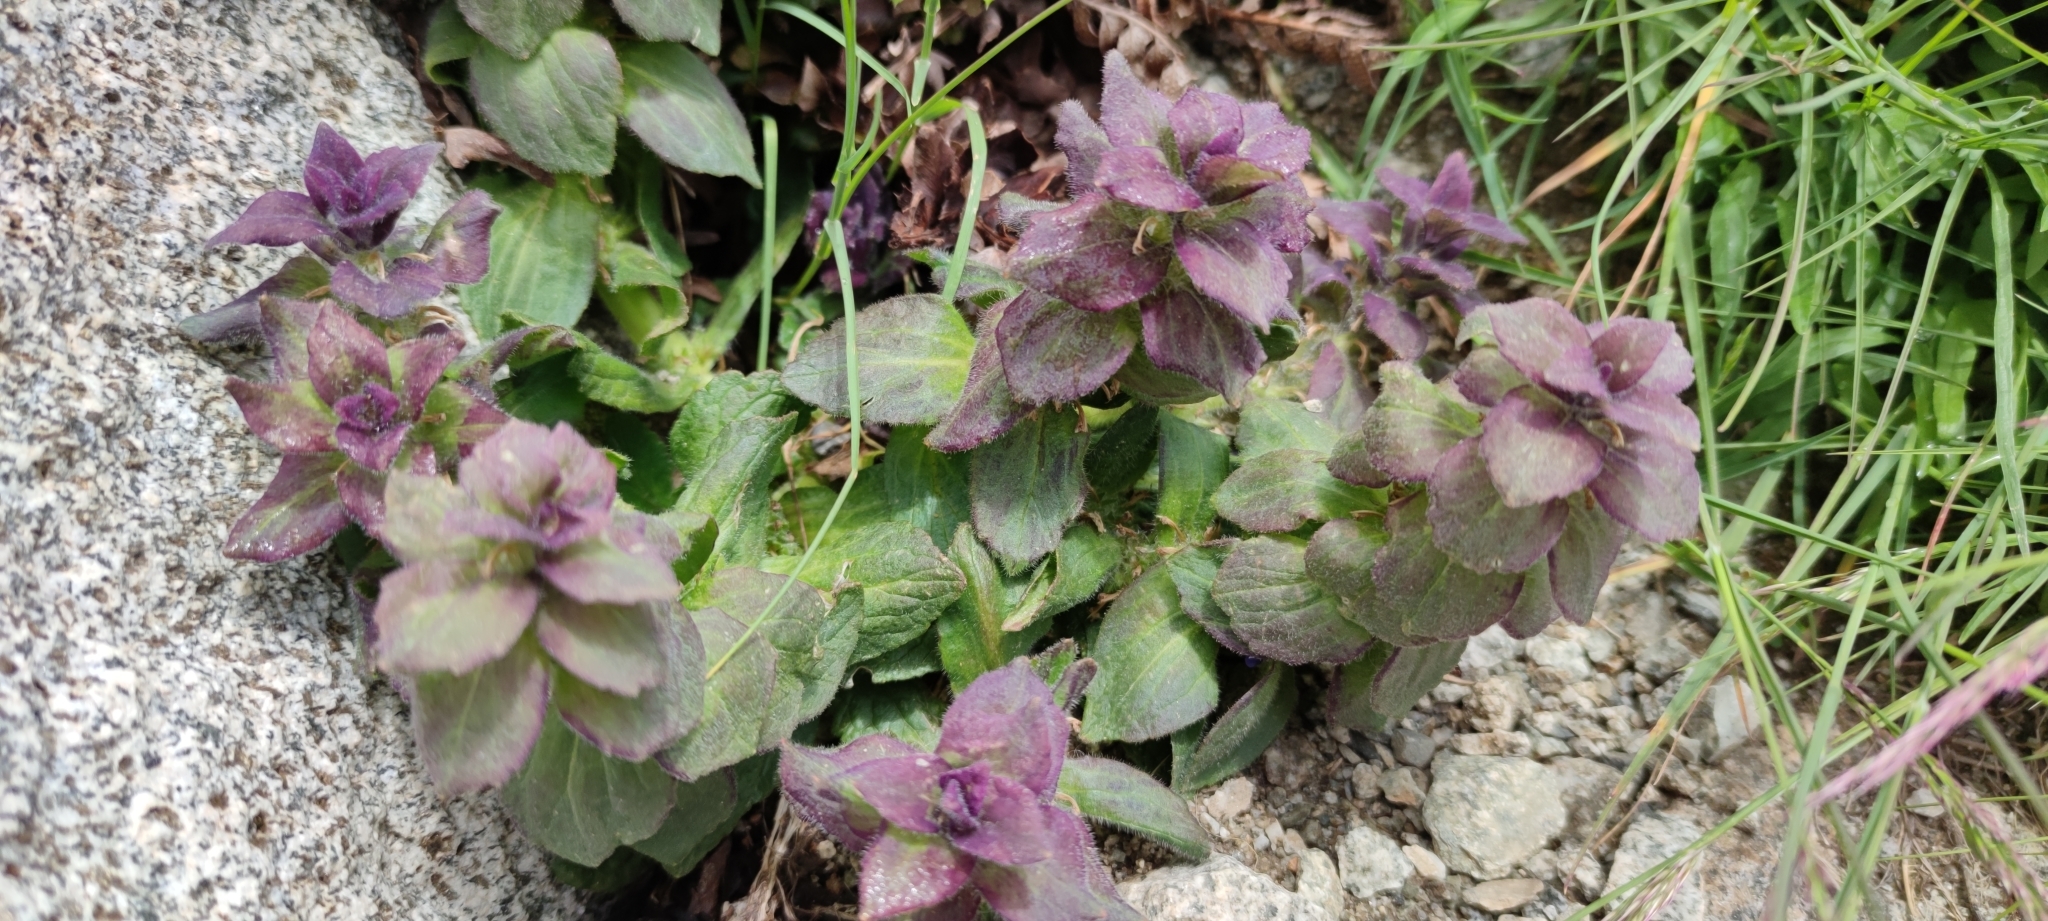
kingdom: Plantae
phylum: Tracheophyta
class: Magnoliopsida
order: Lamiales
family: Lamiaceae
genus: Ajuga
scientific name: Ajuga pyramidalis
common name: Pyramid bugle
